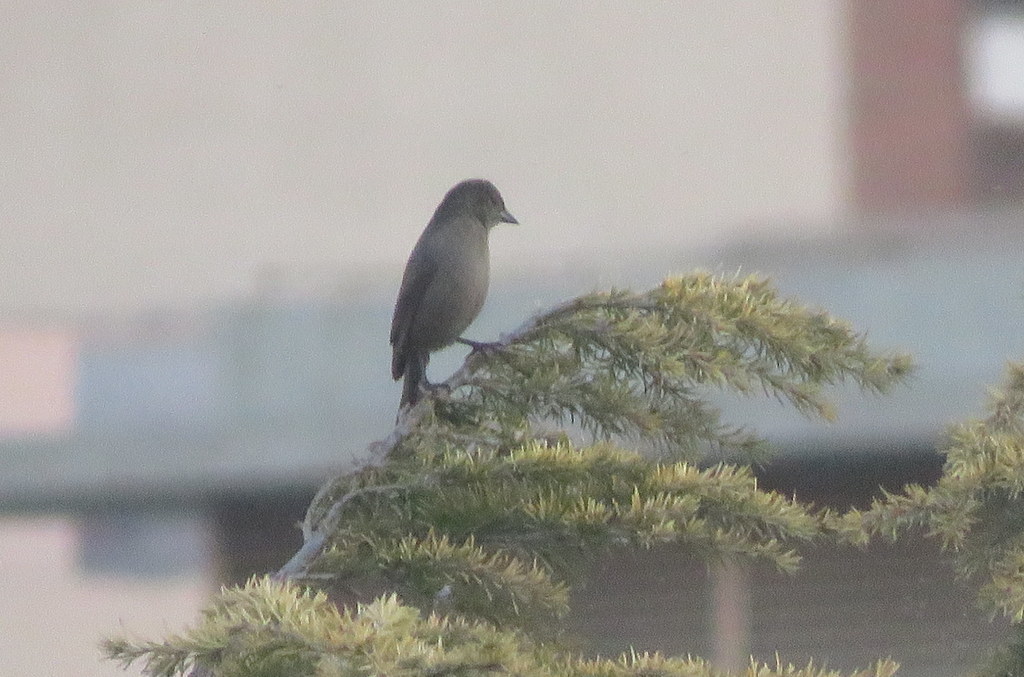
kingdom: Animalia
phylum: Chordata
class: Aves
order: Passeriformes
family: Icteridae
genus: Molothrus
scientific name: Molothrus bonariensis
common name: Shiny cowbird
